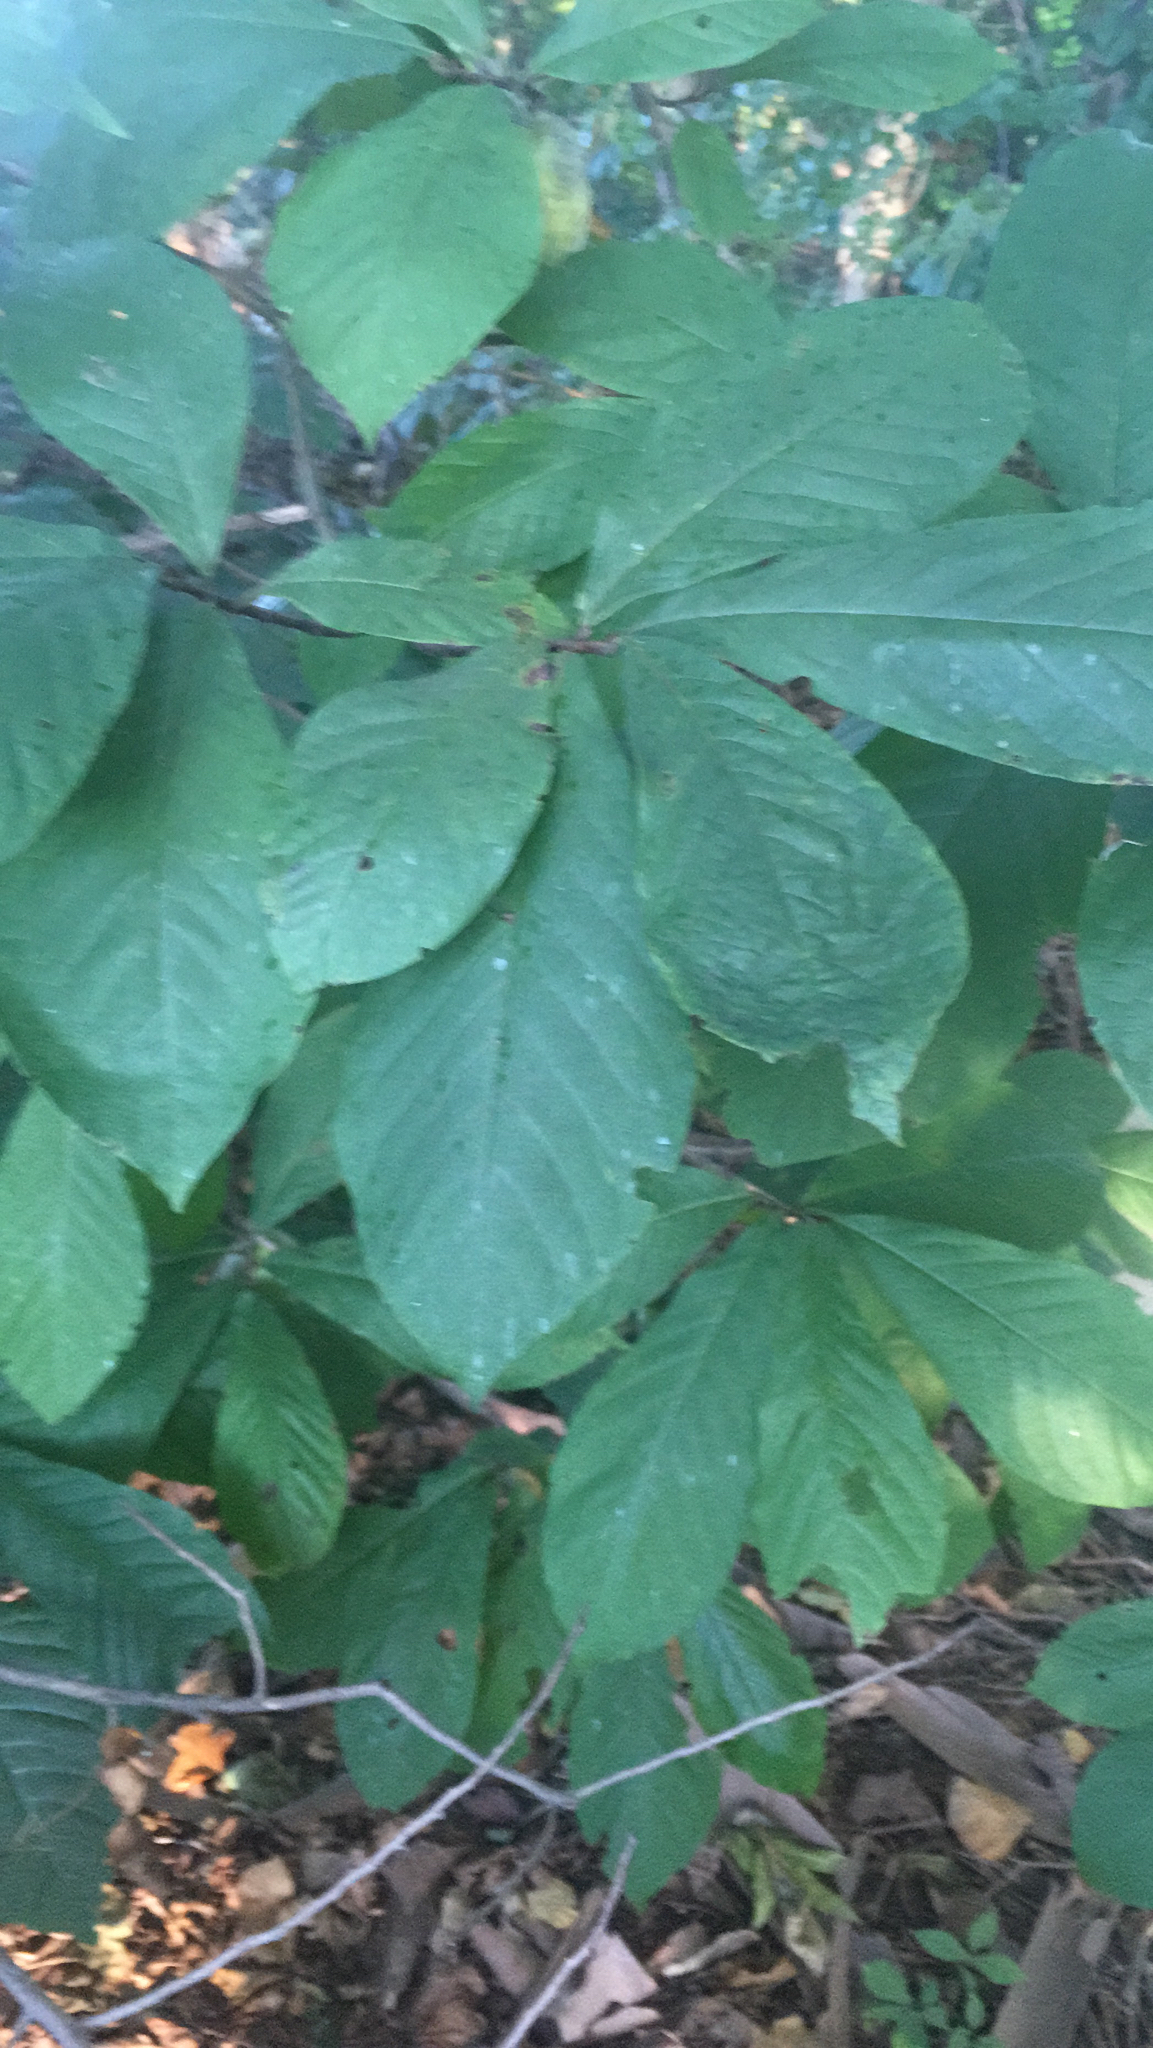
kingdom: Plantae
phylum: Tracheophyta
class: Magnoliopsida
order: Magnoliales
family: Annonaceae
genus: Asimina
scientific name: Asimina triloba
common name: Dog-banana
